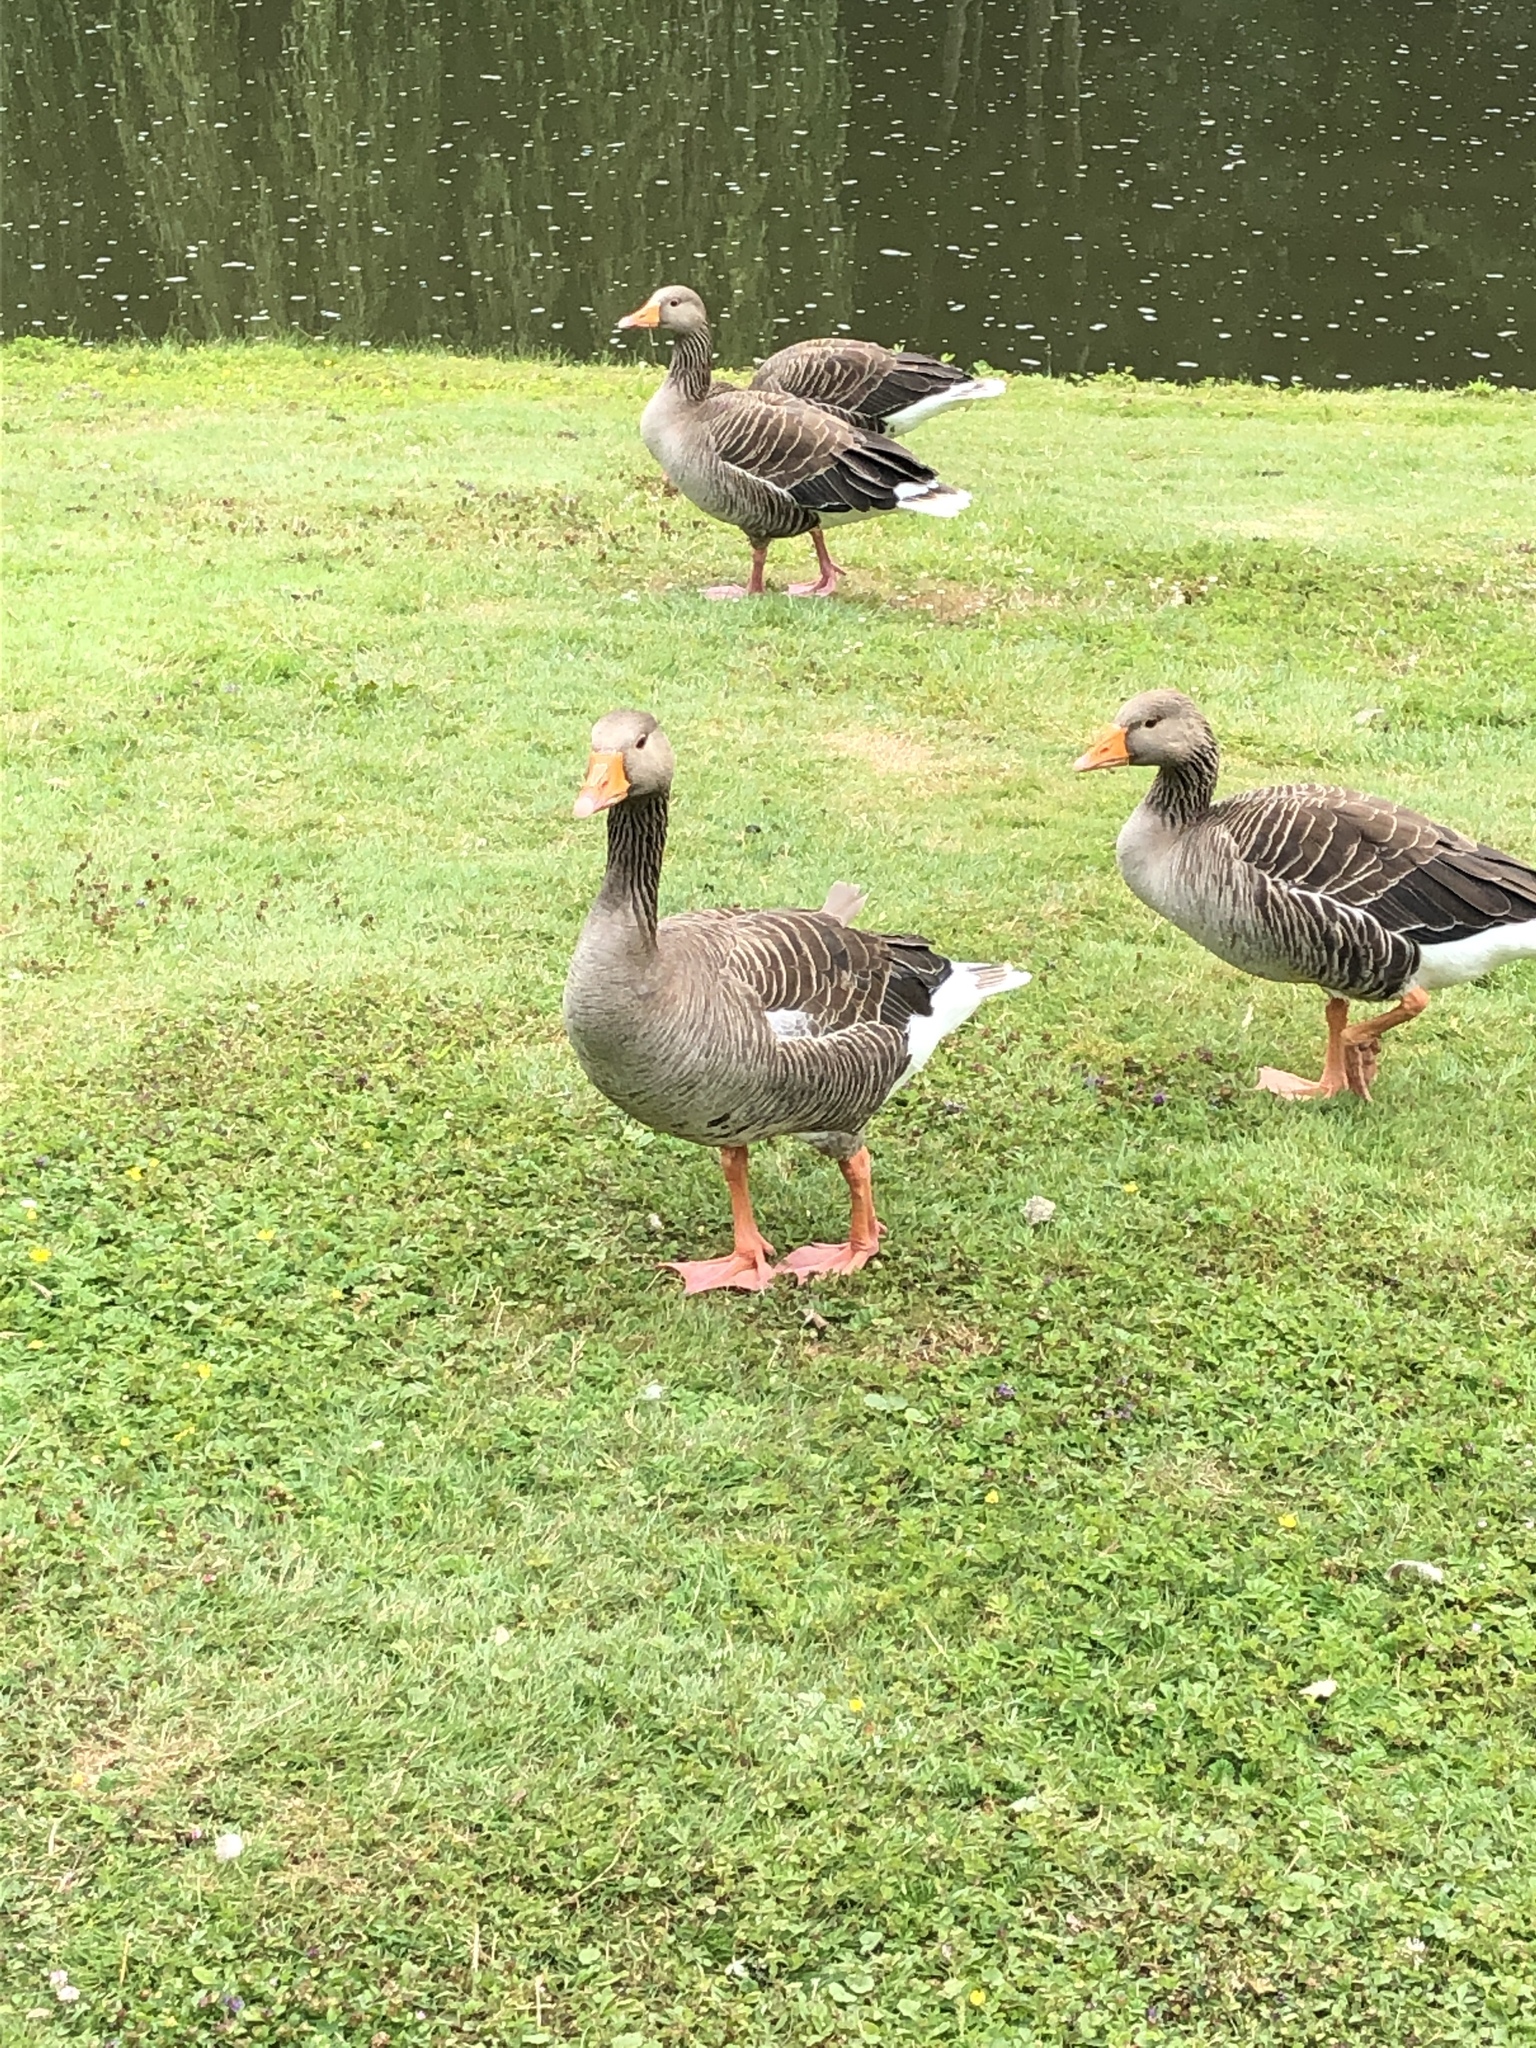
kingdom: Animalia
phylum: Chordata
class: Aves
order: Anseriformes
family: Anatidae
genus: Anser
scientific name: Anser anser
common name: Greylag goose
